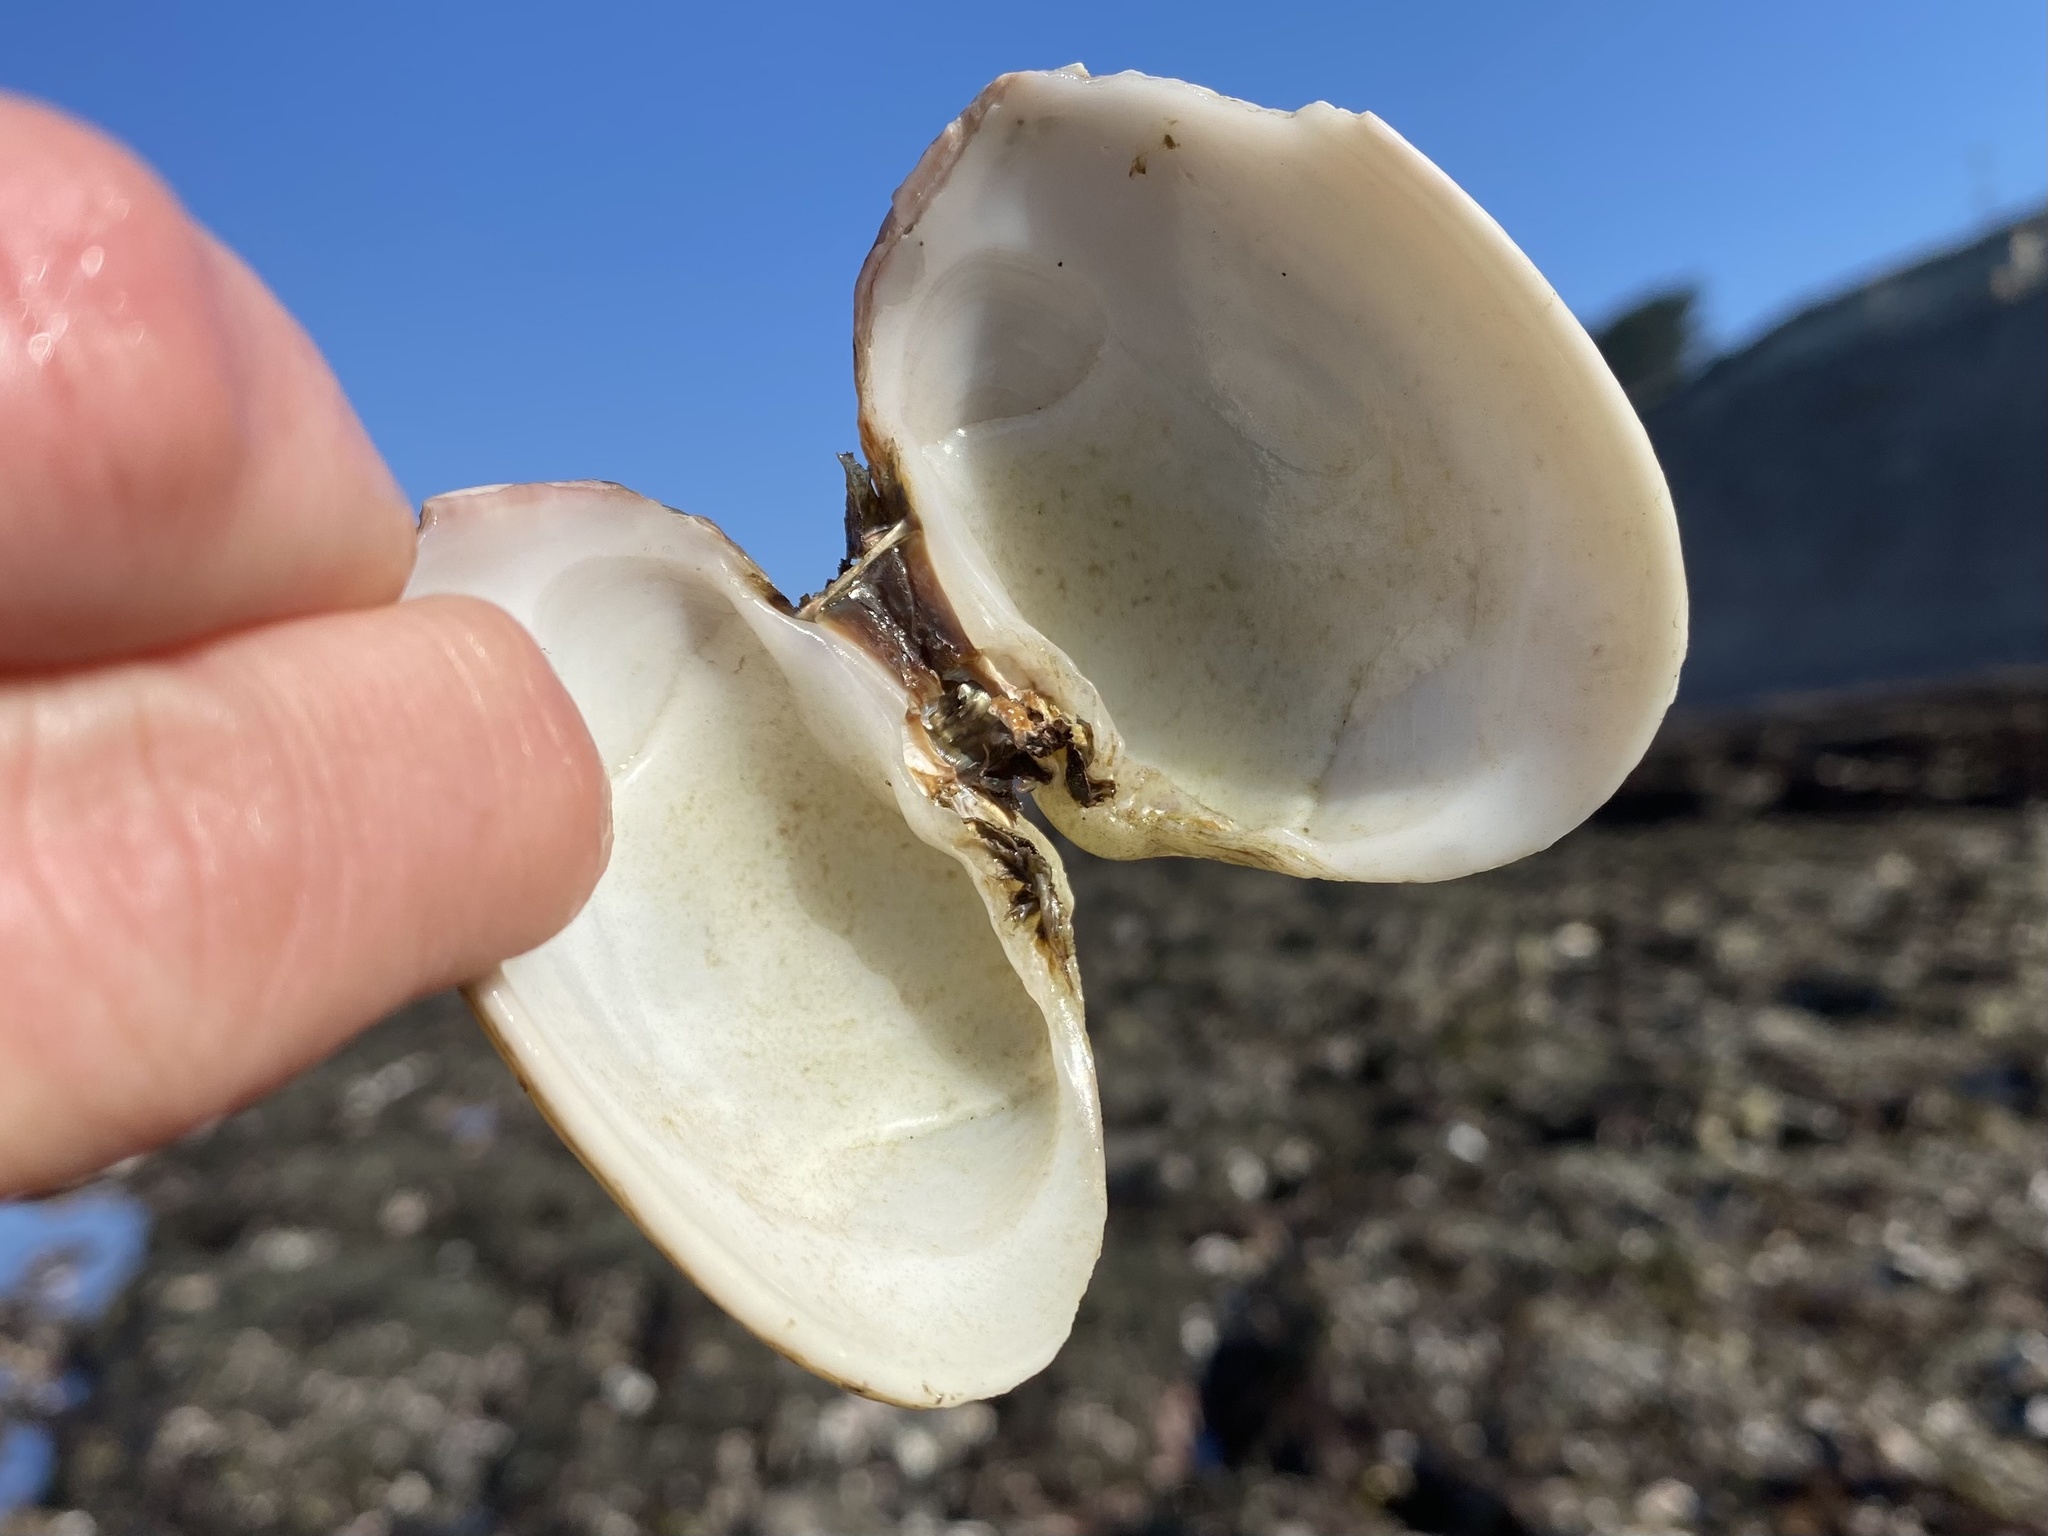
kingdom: Animalia
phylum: Mollusca
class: Bivalvia
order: Venerida
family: Veneridae
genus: Saxidomus
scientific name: Saxidomus nuttalli
